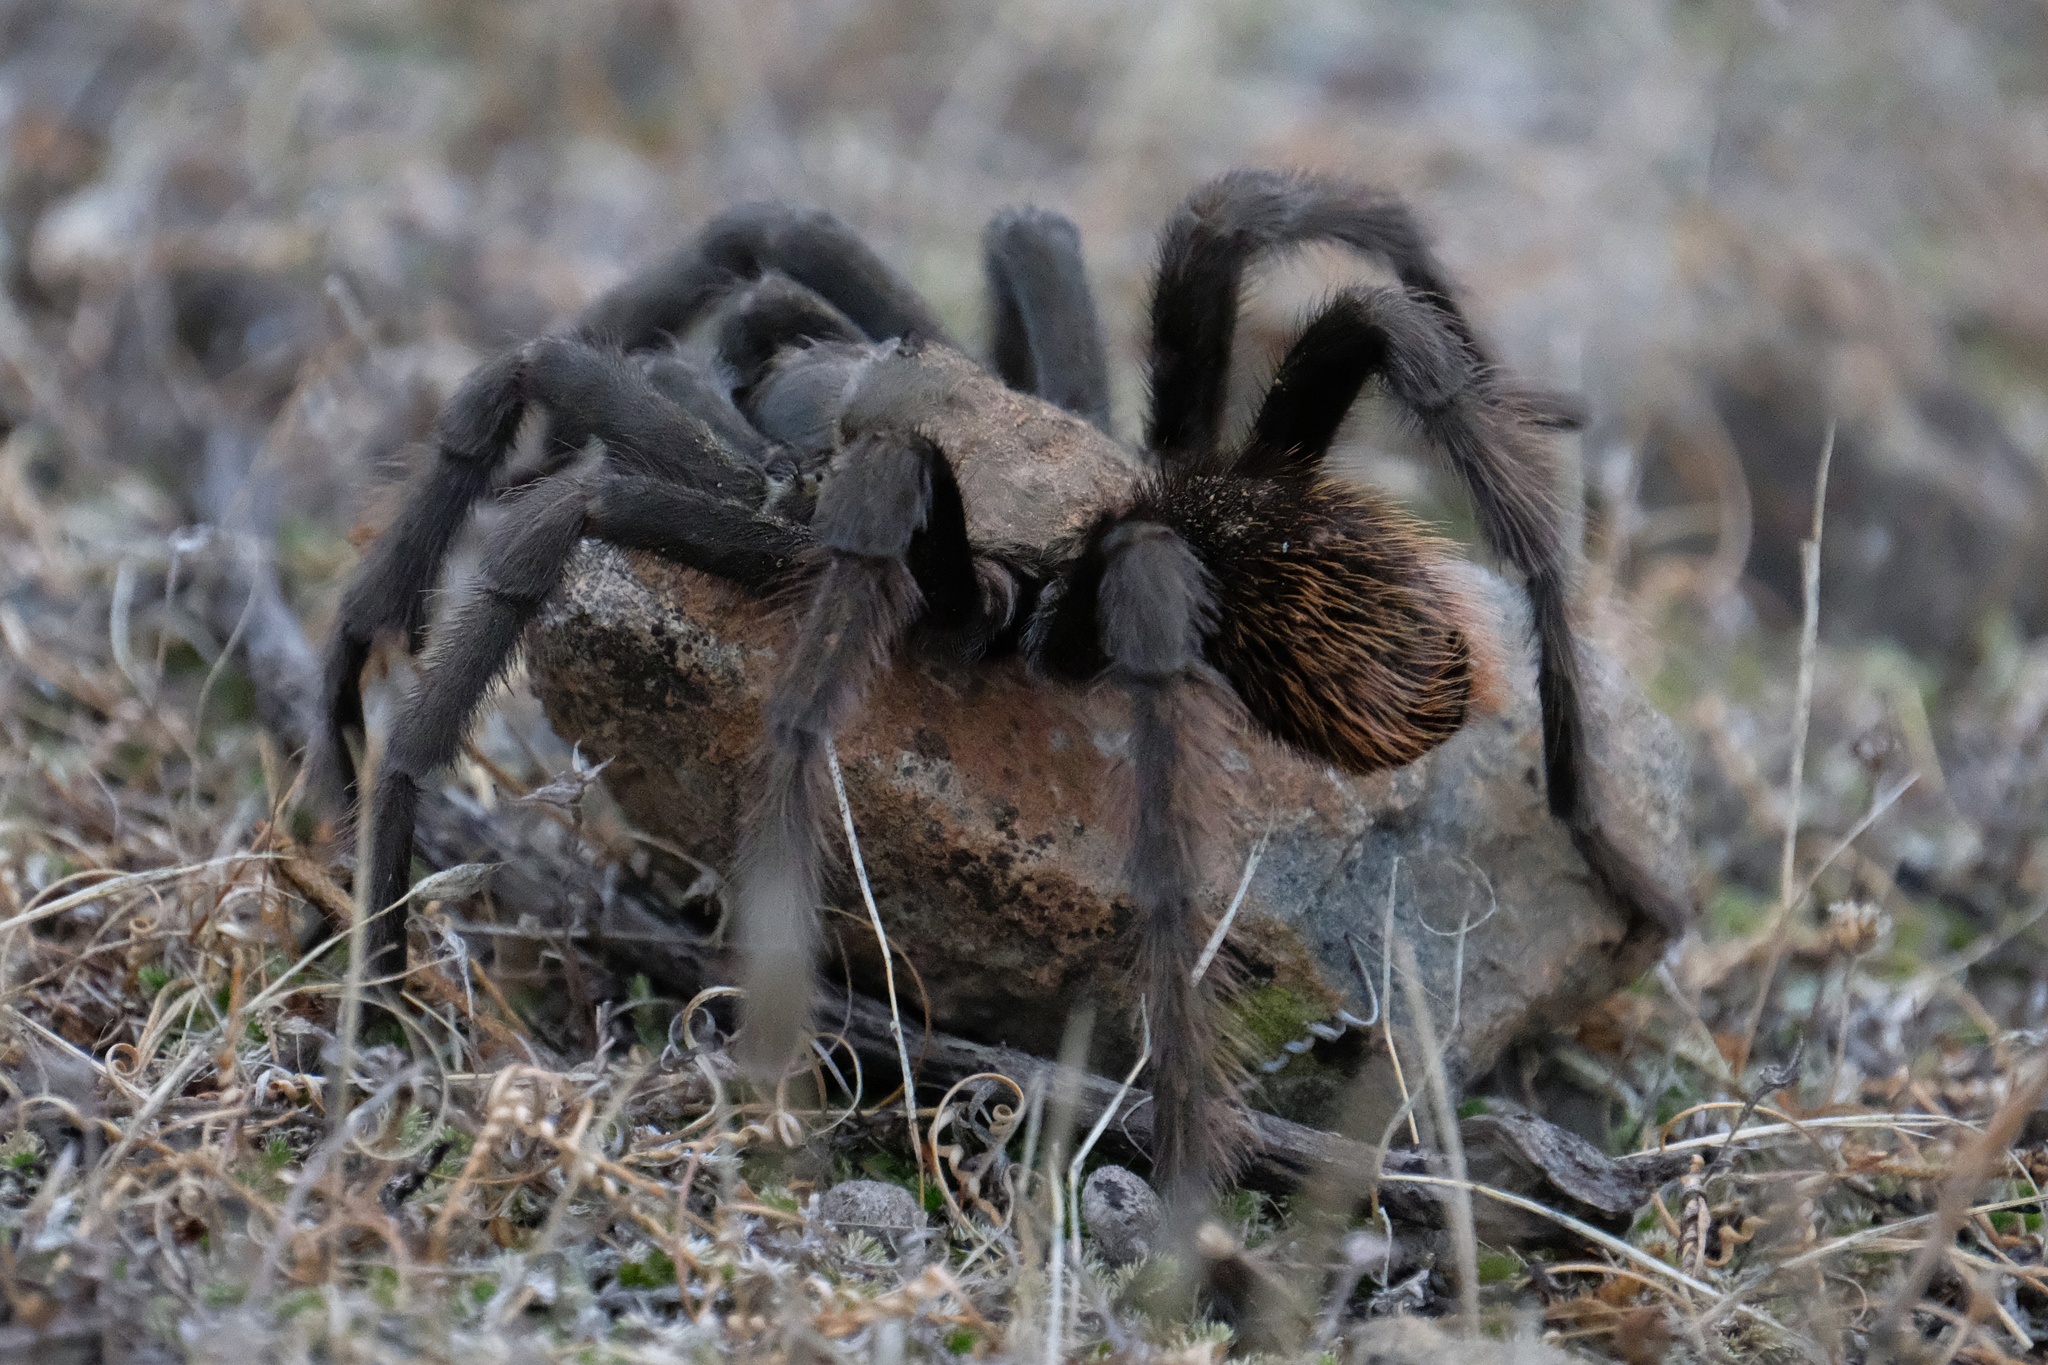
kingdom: Animalia
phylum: Arthropoda
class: Arachnida
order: Araneae
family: Theraphosidae
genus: Aphonopelma
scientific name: Aphonopelma eutylenum
